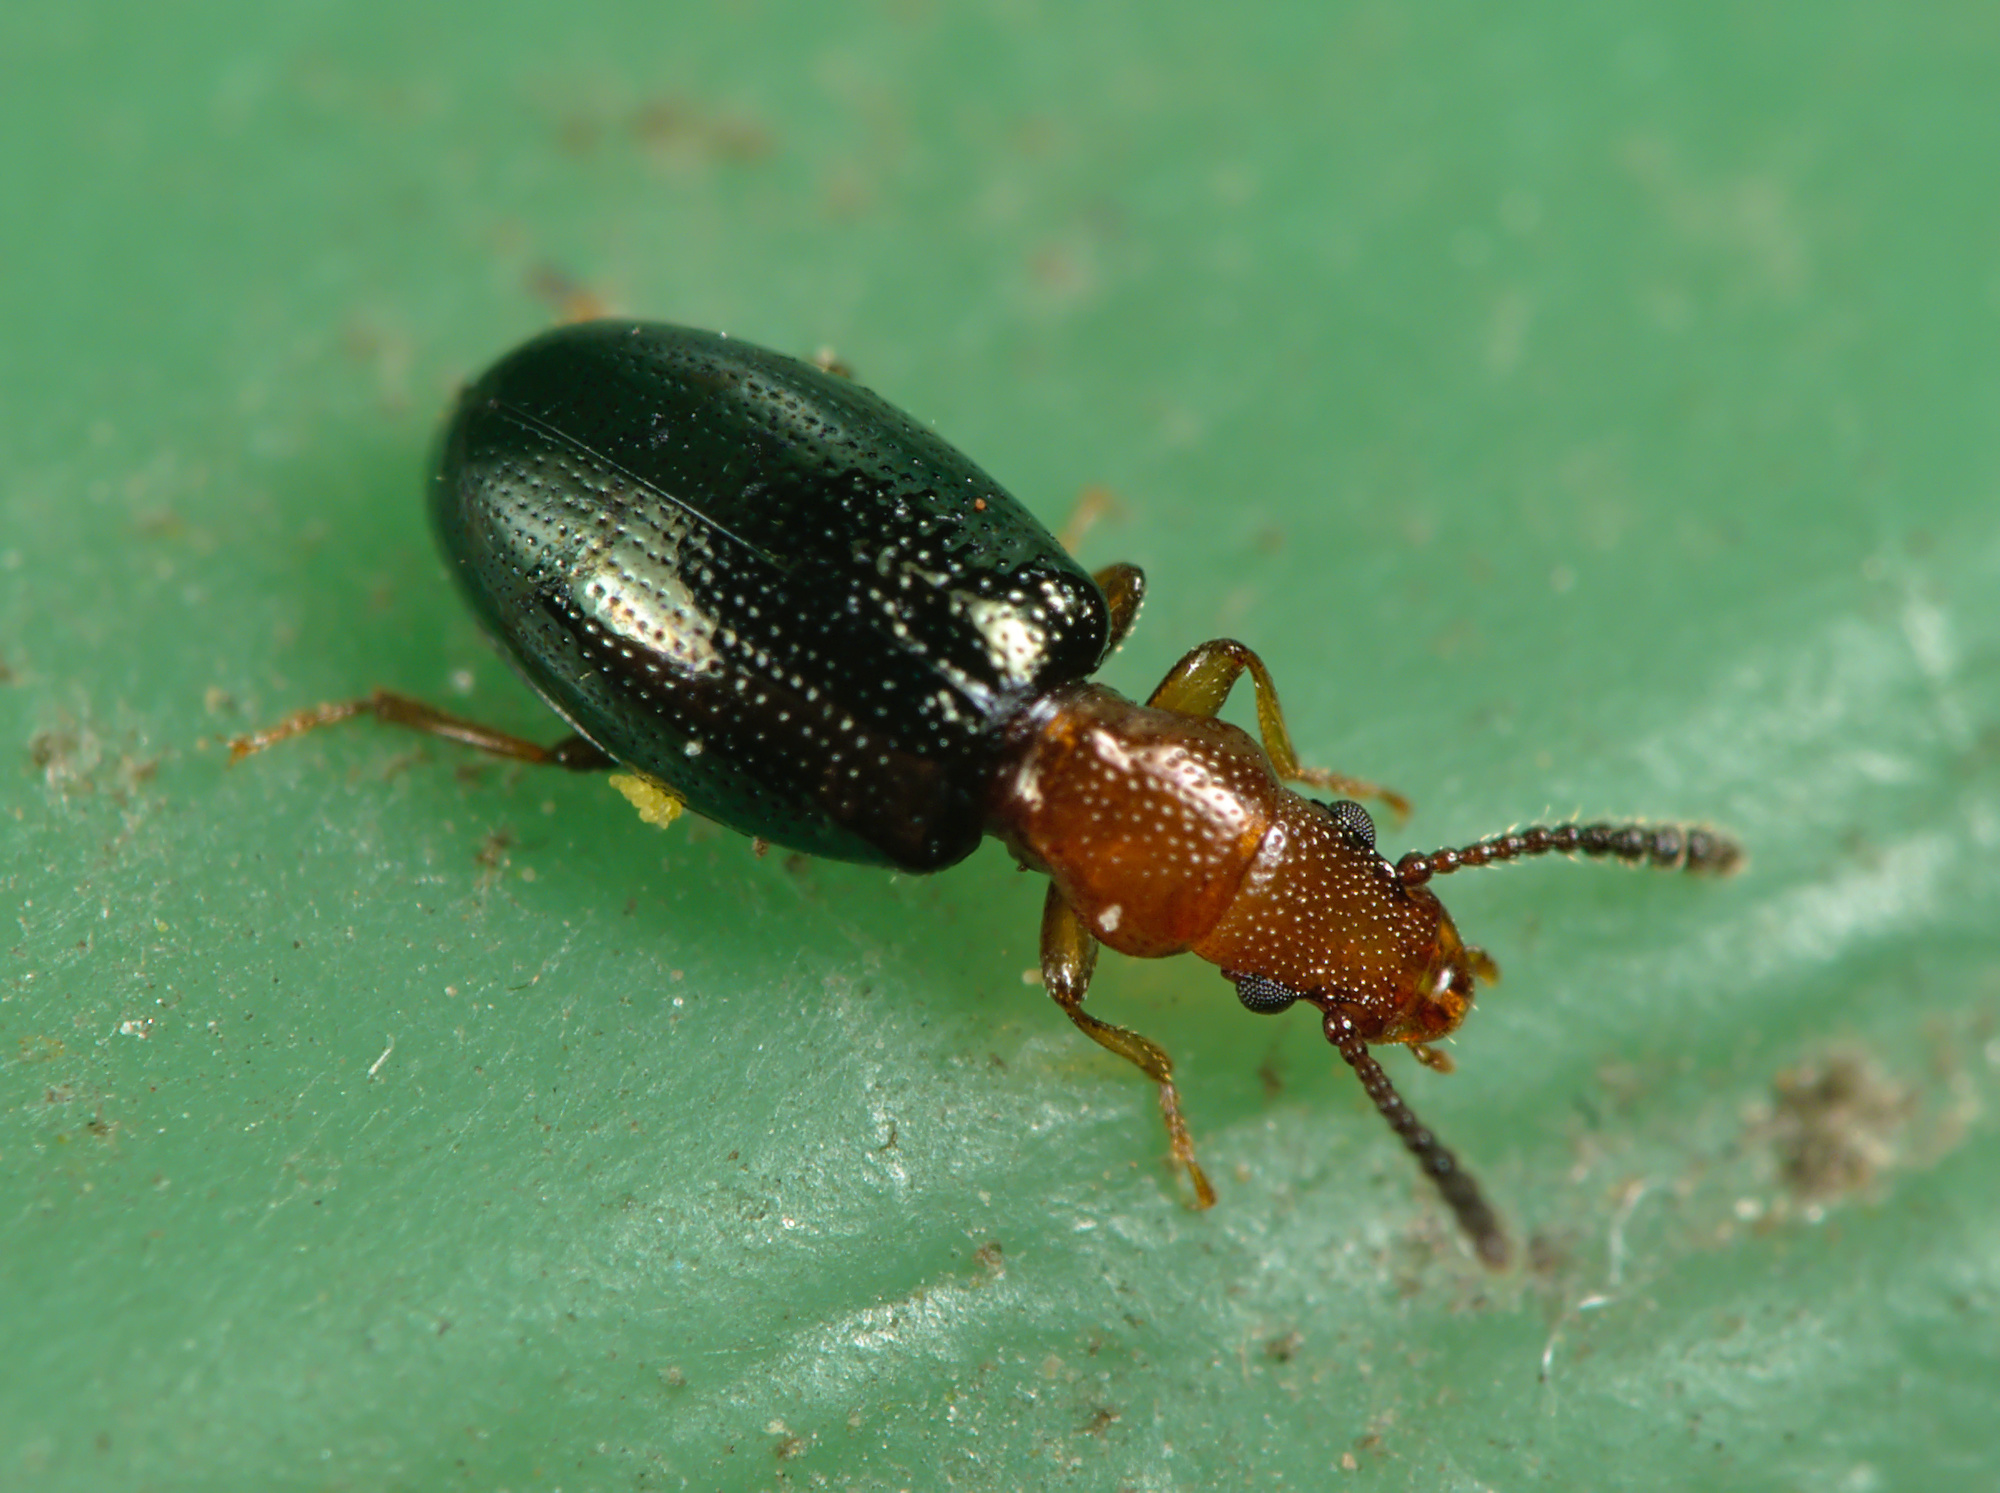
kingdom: Animalia
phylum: Arthropoda
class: Insecta
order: Coleoptera
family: Salpingidae
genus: Vincenzellus
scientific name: Vincenzellus ruficollis
